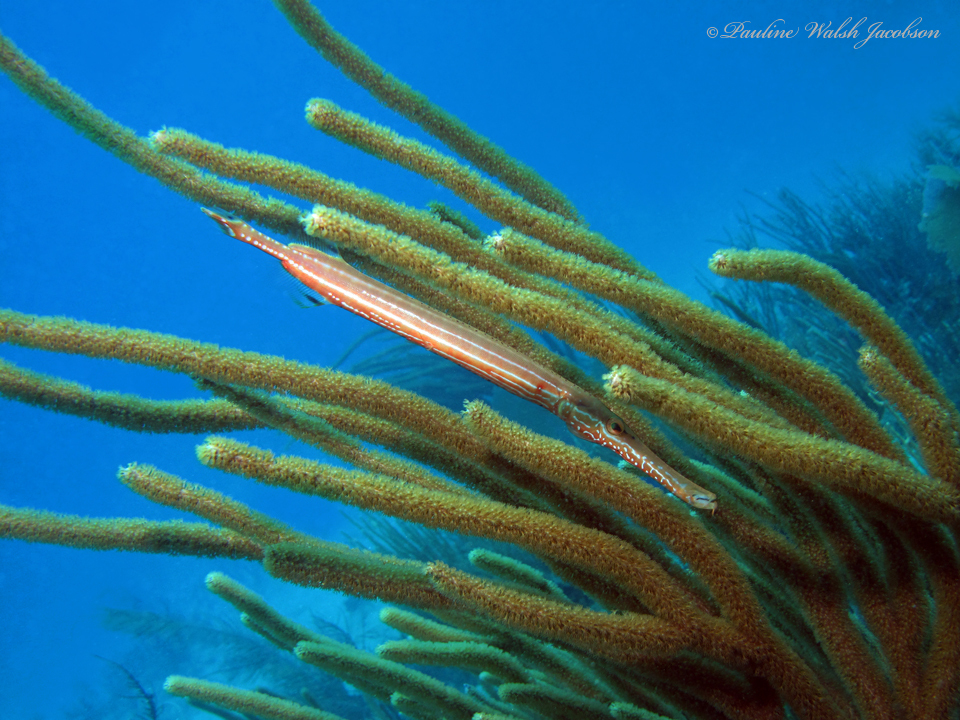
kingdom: Animalia
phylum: Chordata
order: Syngnathiformes
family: Aulostomidae
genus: Aulostomus
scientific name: Aulostomus maculatus
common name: West atlantic trumpetfish
